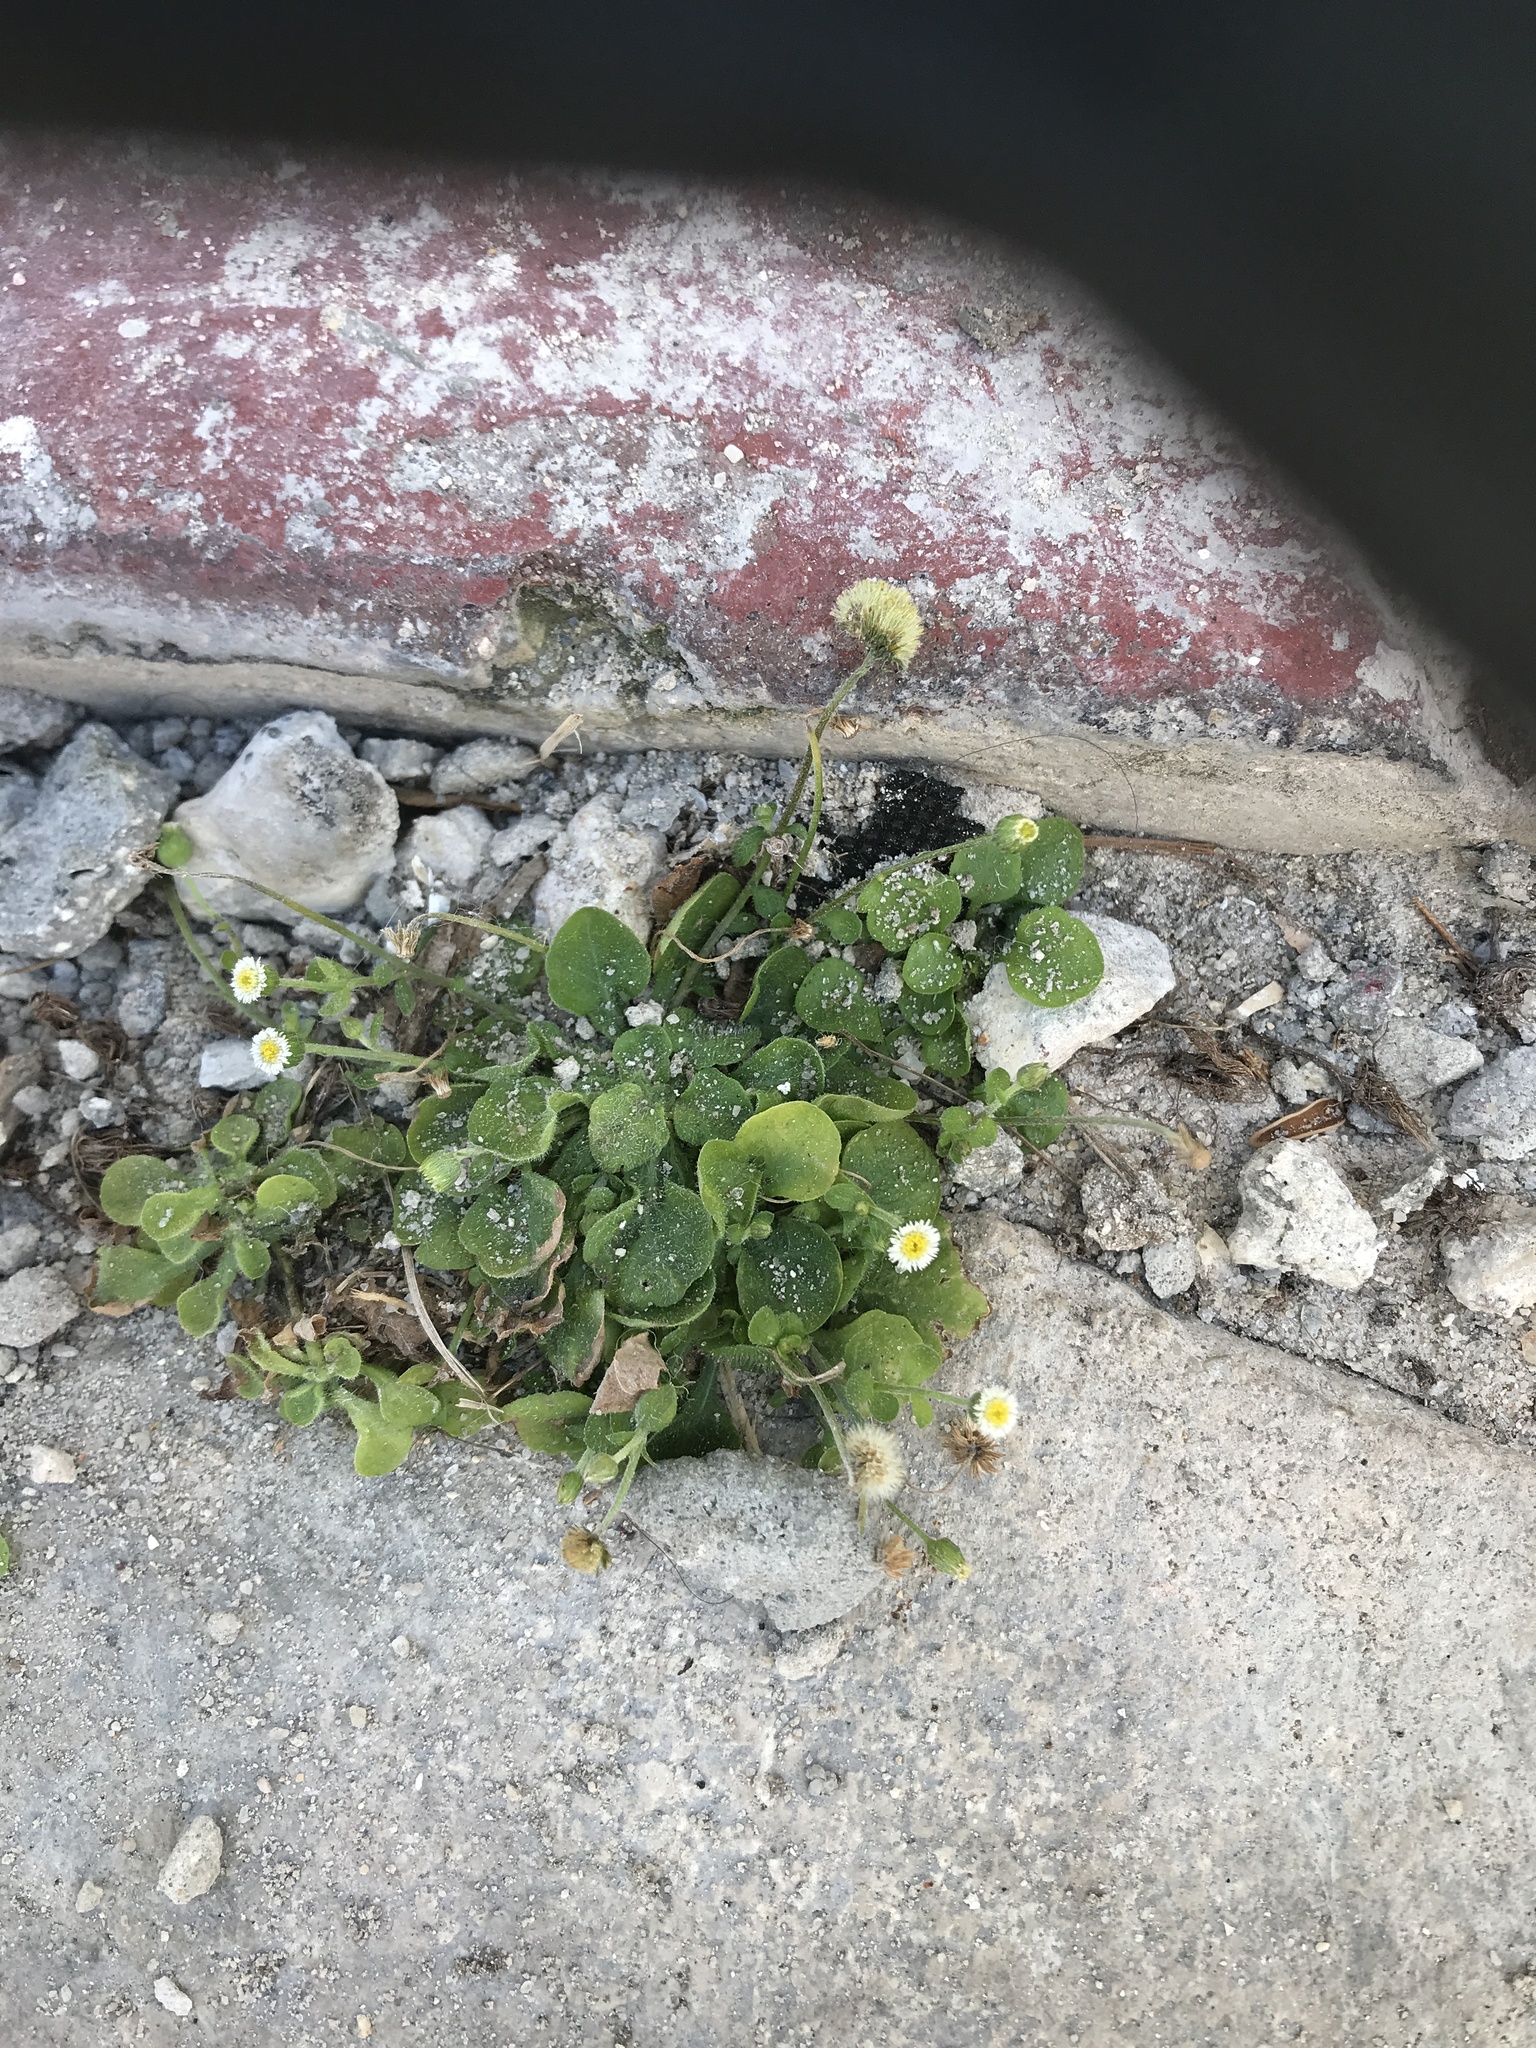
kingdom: Plantae
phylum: Tracheophyta
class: Magnoliopsida
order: Asterales
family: Asteraceae
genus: Erigeron
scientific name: Erigeron bellioides
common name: Bellorita
